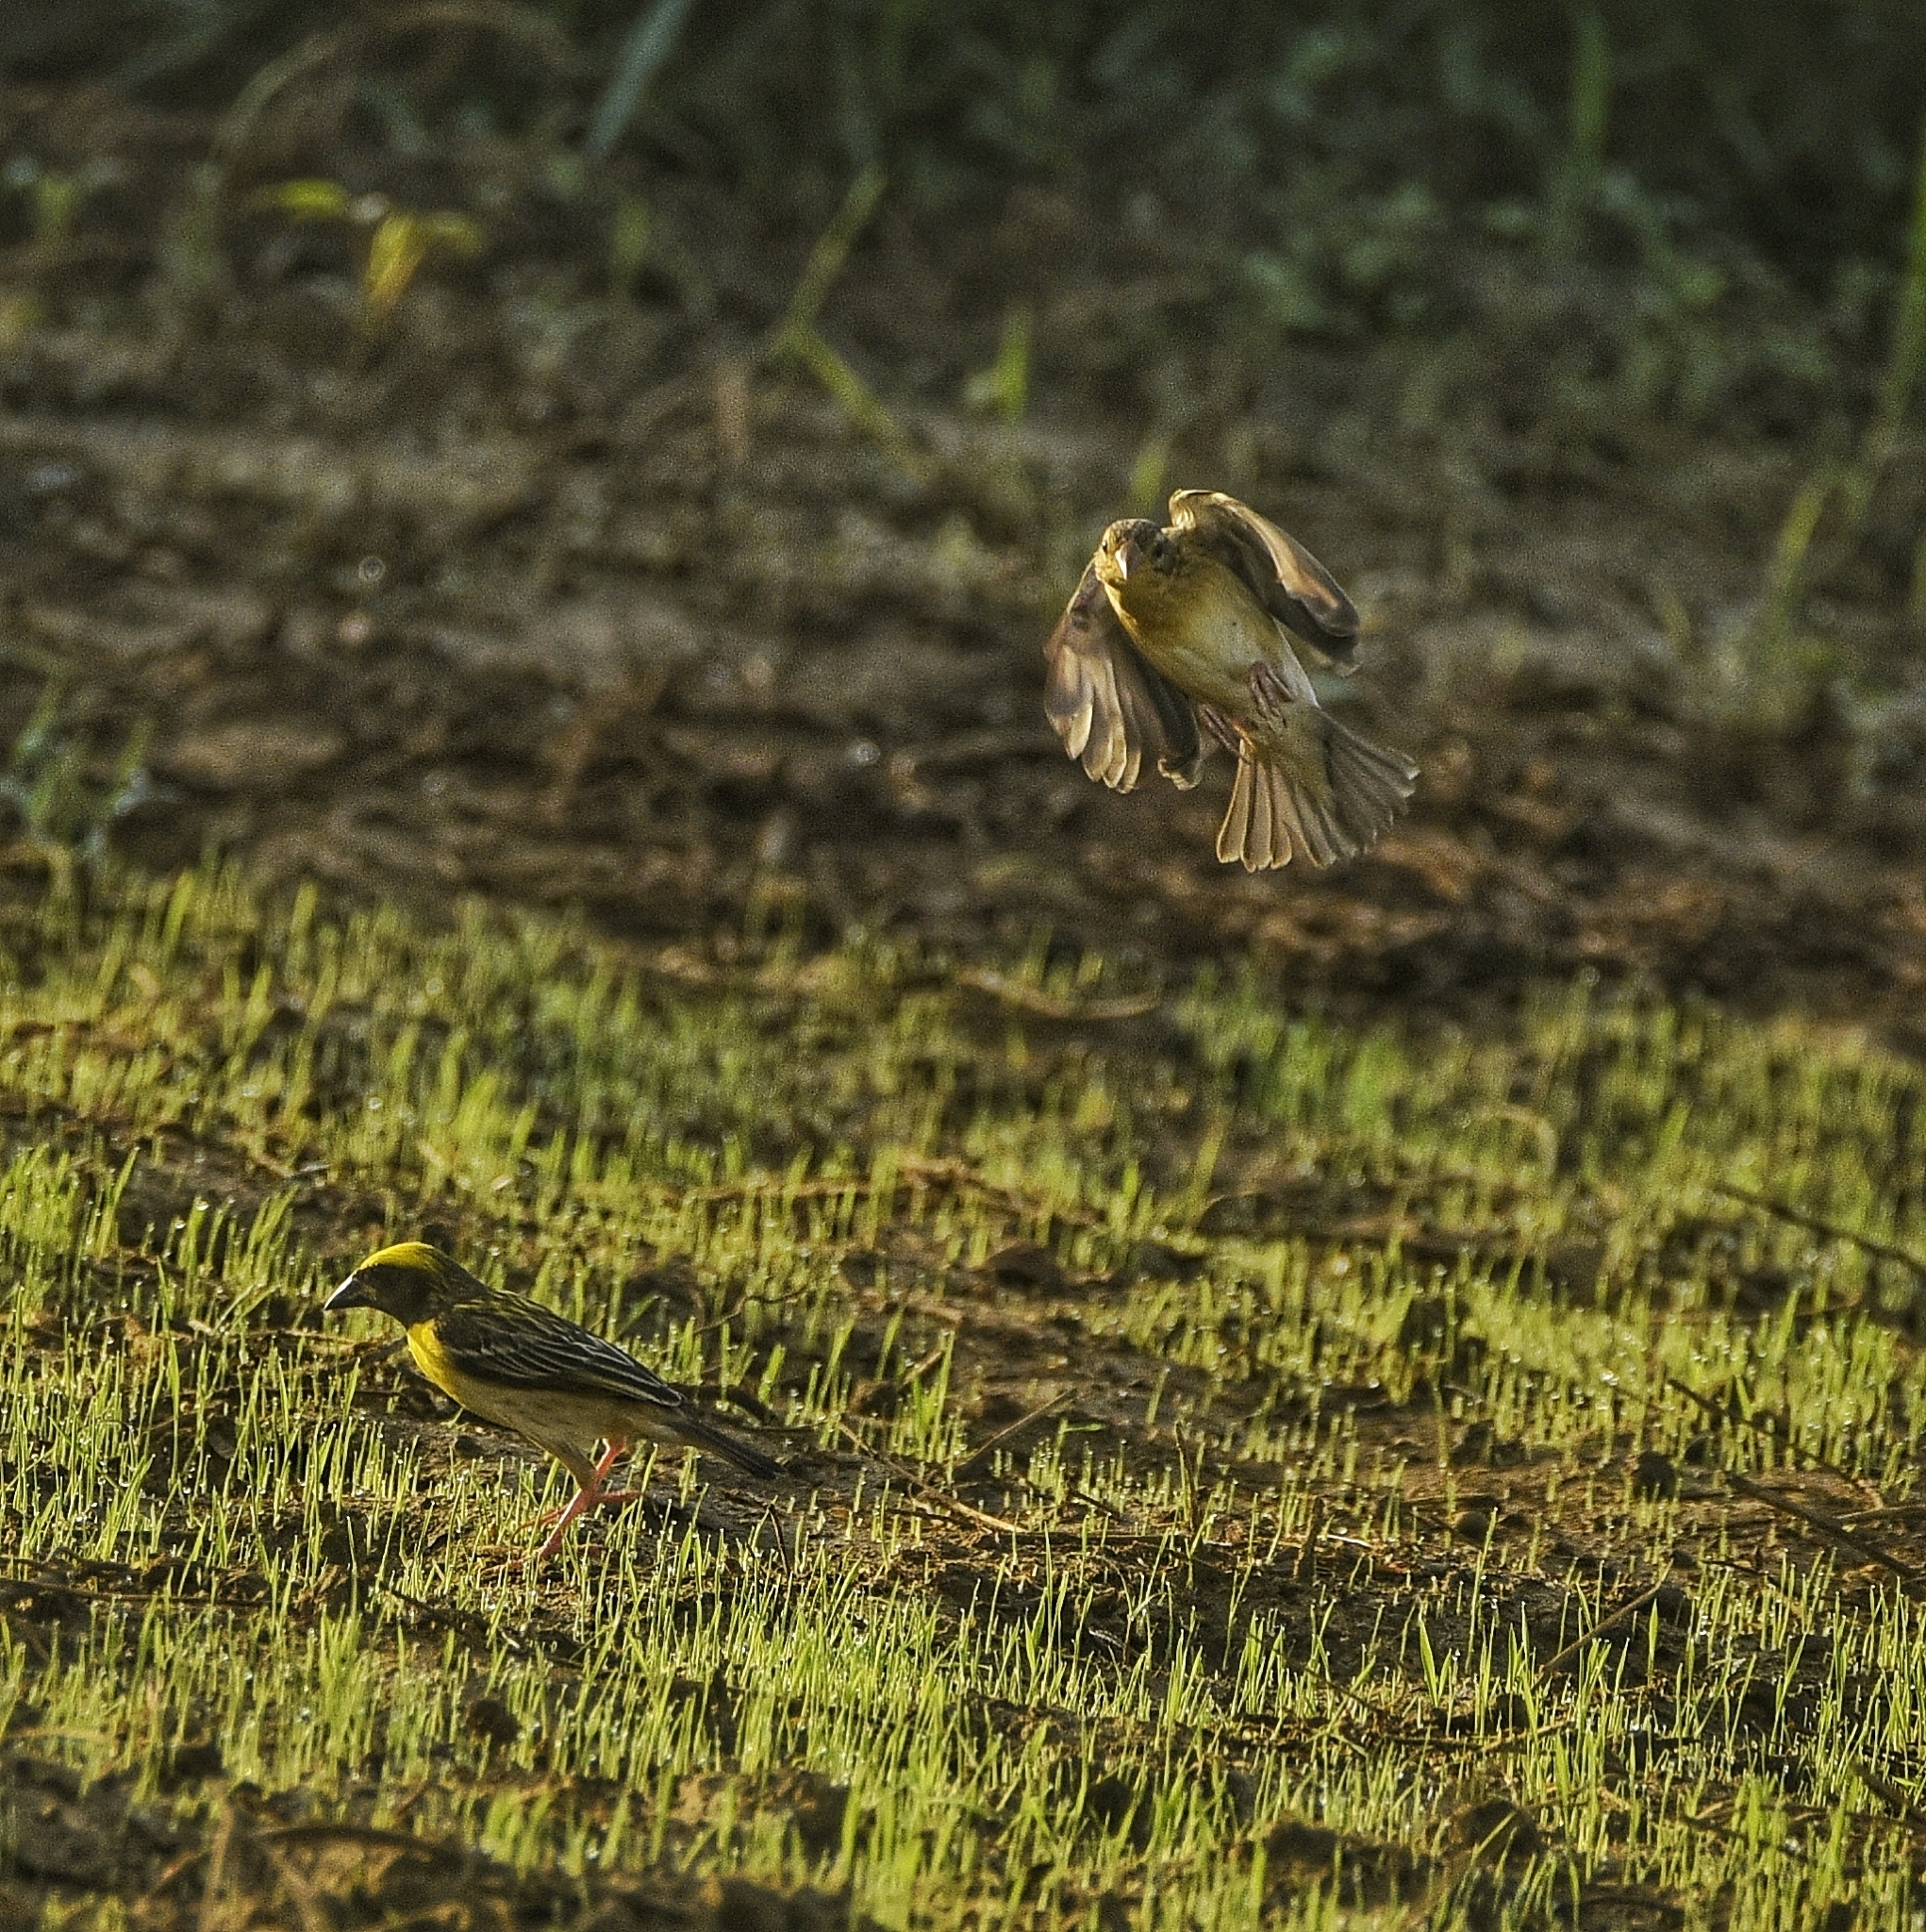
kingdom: Animalia
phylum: Chordata
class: Aves
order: Passeriformes
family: Ploceidae
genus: Ploceus
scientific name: Ploceus philippinus
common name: Baya weaver
